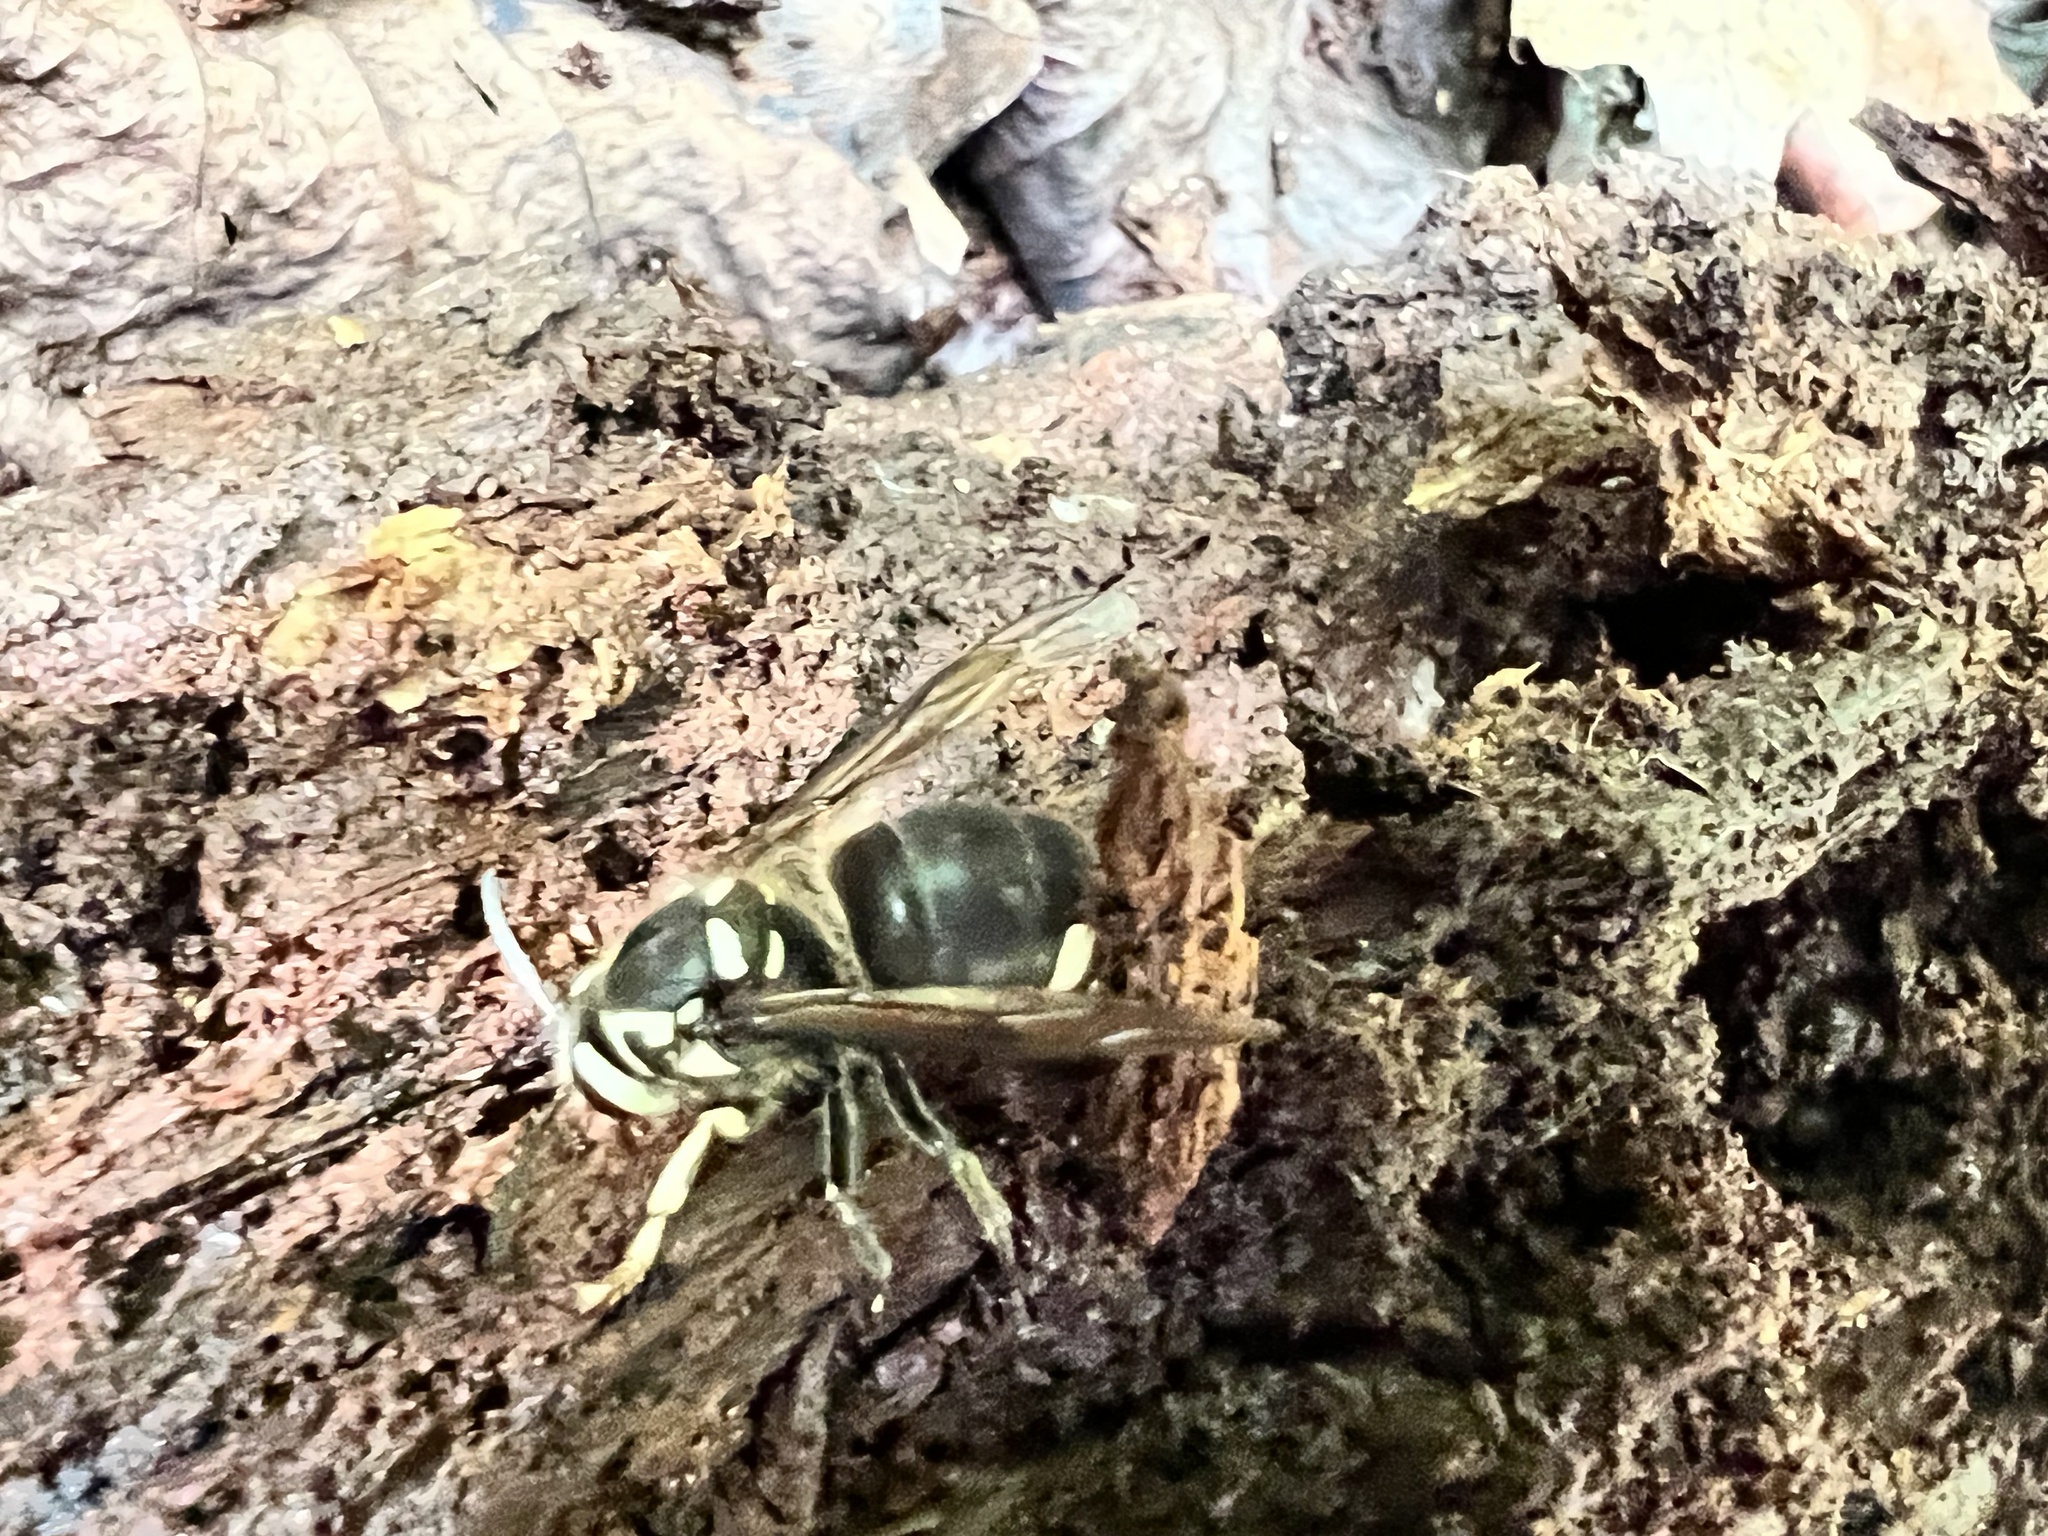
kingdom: Animalia
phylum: Arthropoda
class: Insecta
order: Hymenoptera
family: Vespidae
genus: Dolichovespula
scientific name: Dolichovespula maculata
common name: Bald-faced hornet
